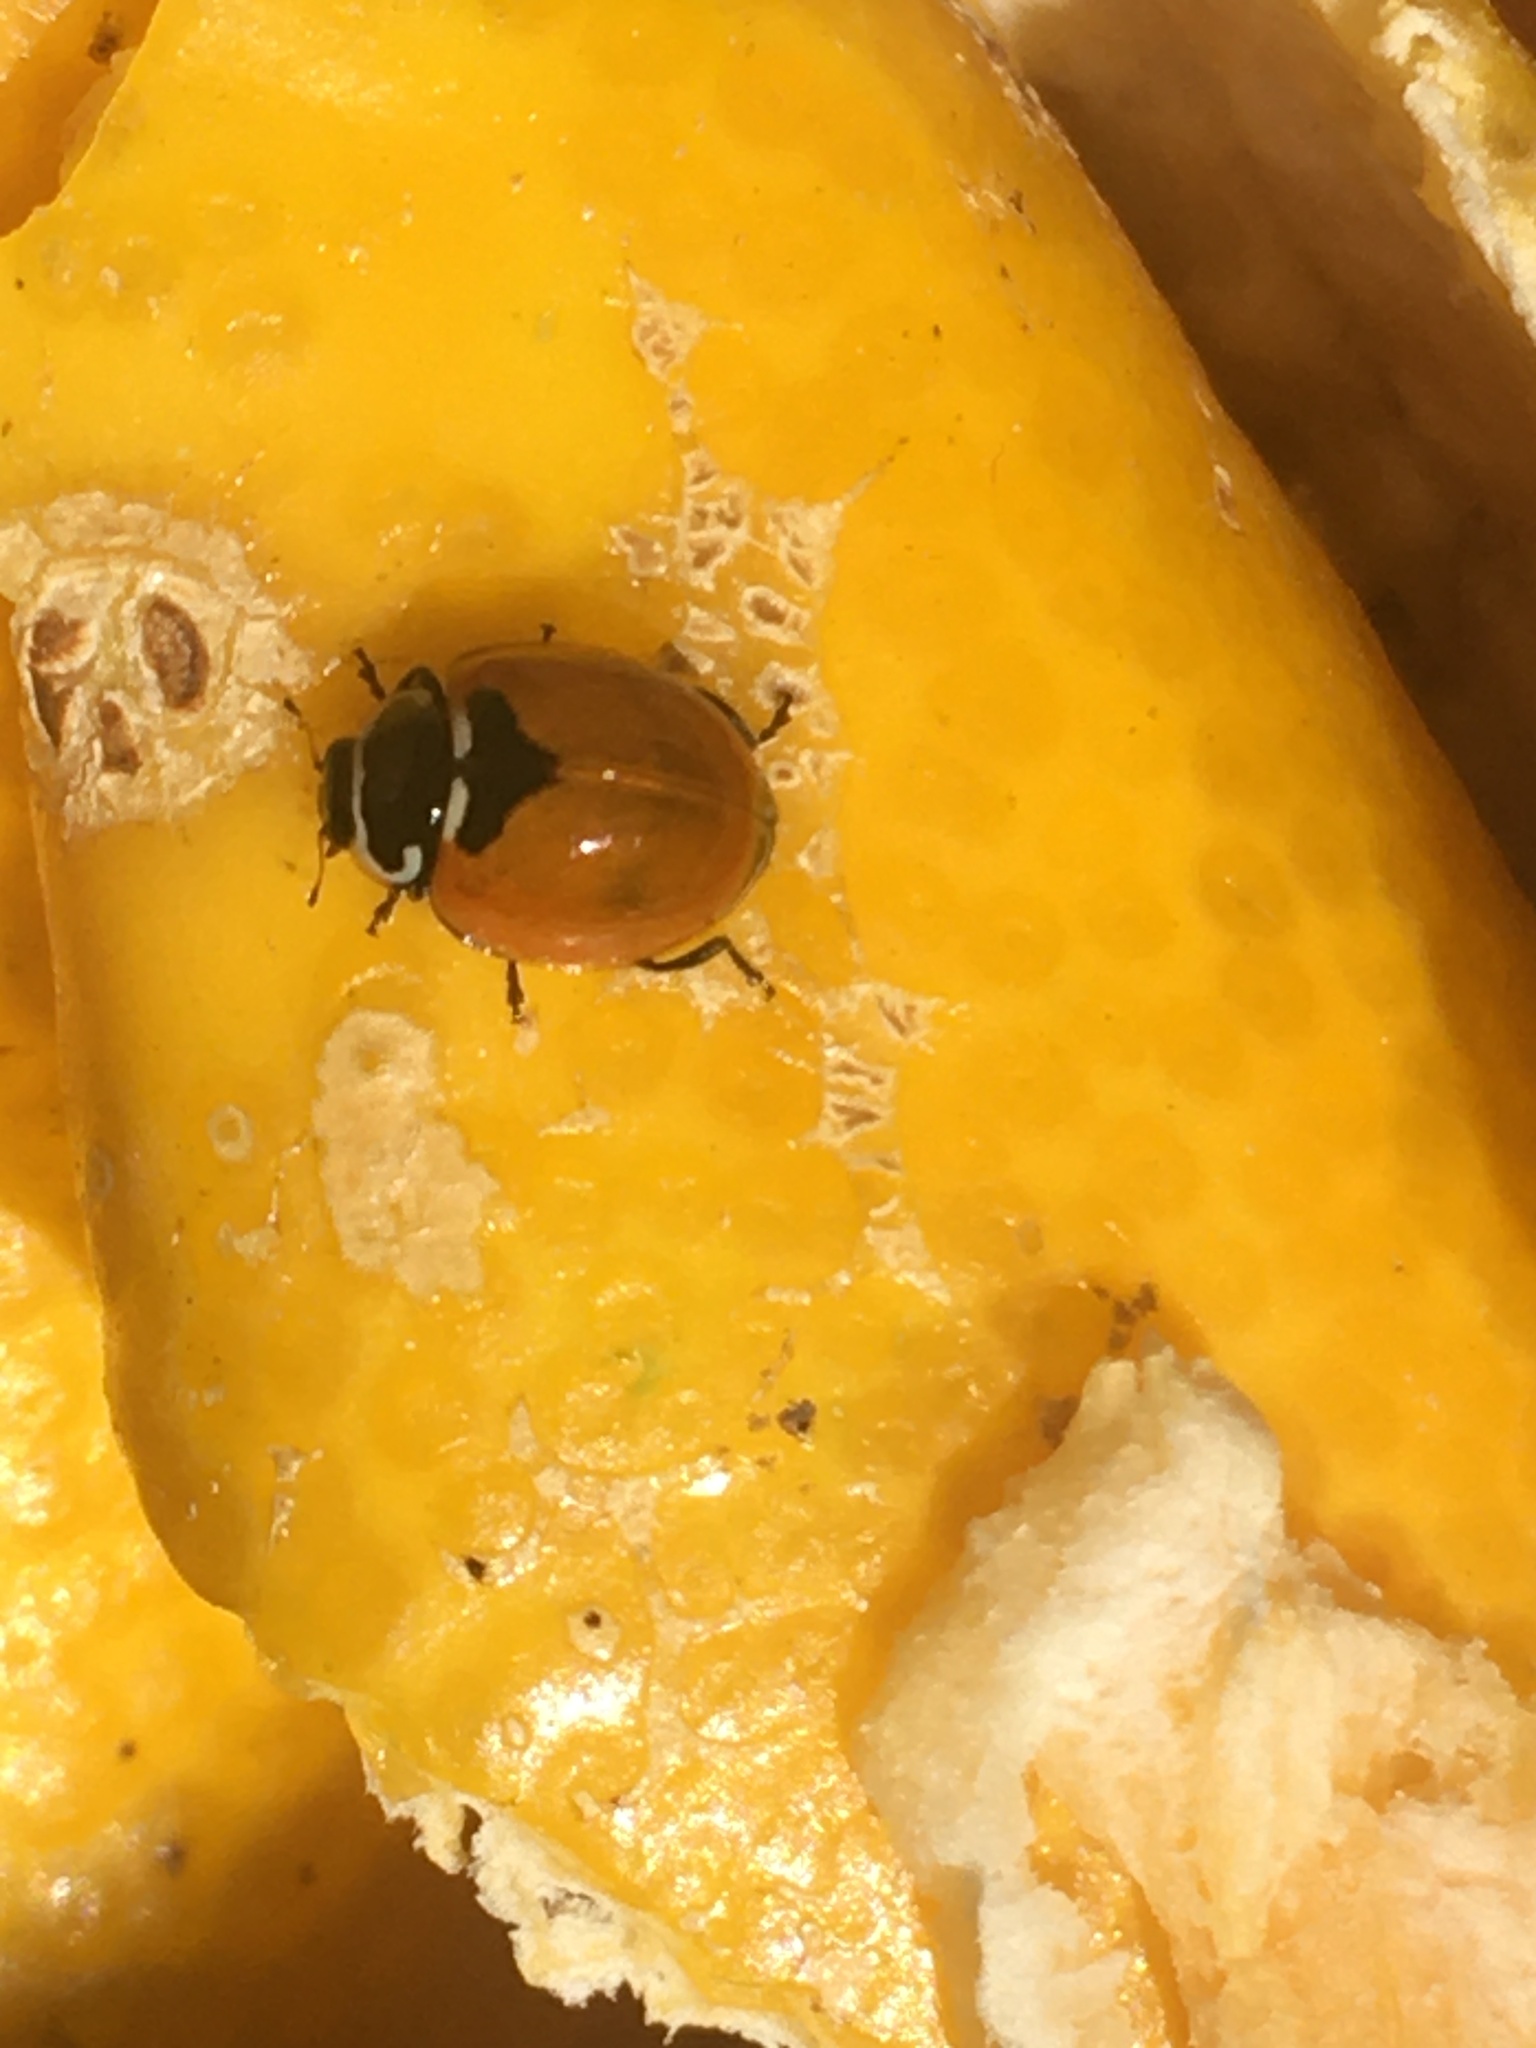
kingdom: Animalia
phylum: Arthropoda
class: Insecta
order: Coleoptera
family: Coccinellidae
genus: Adalia
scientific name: Adalia deficiens
